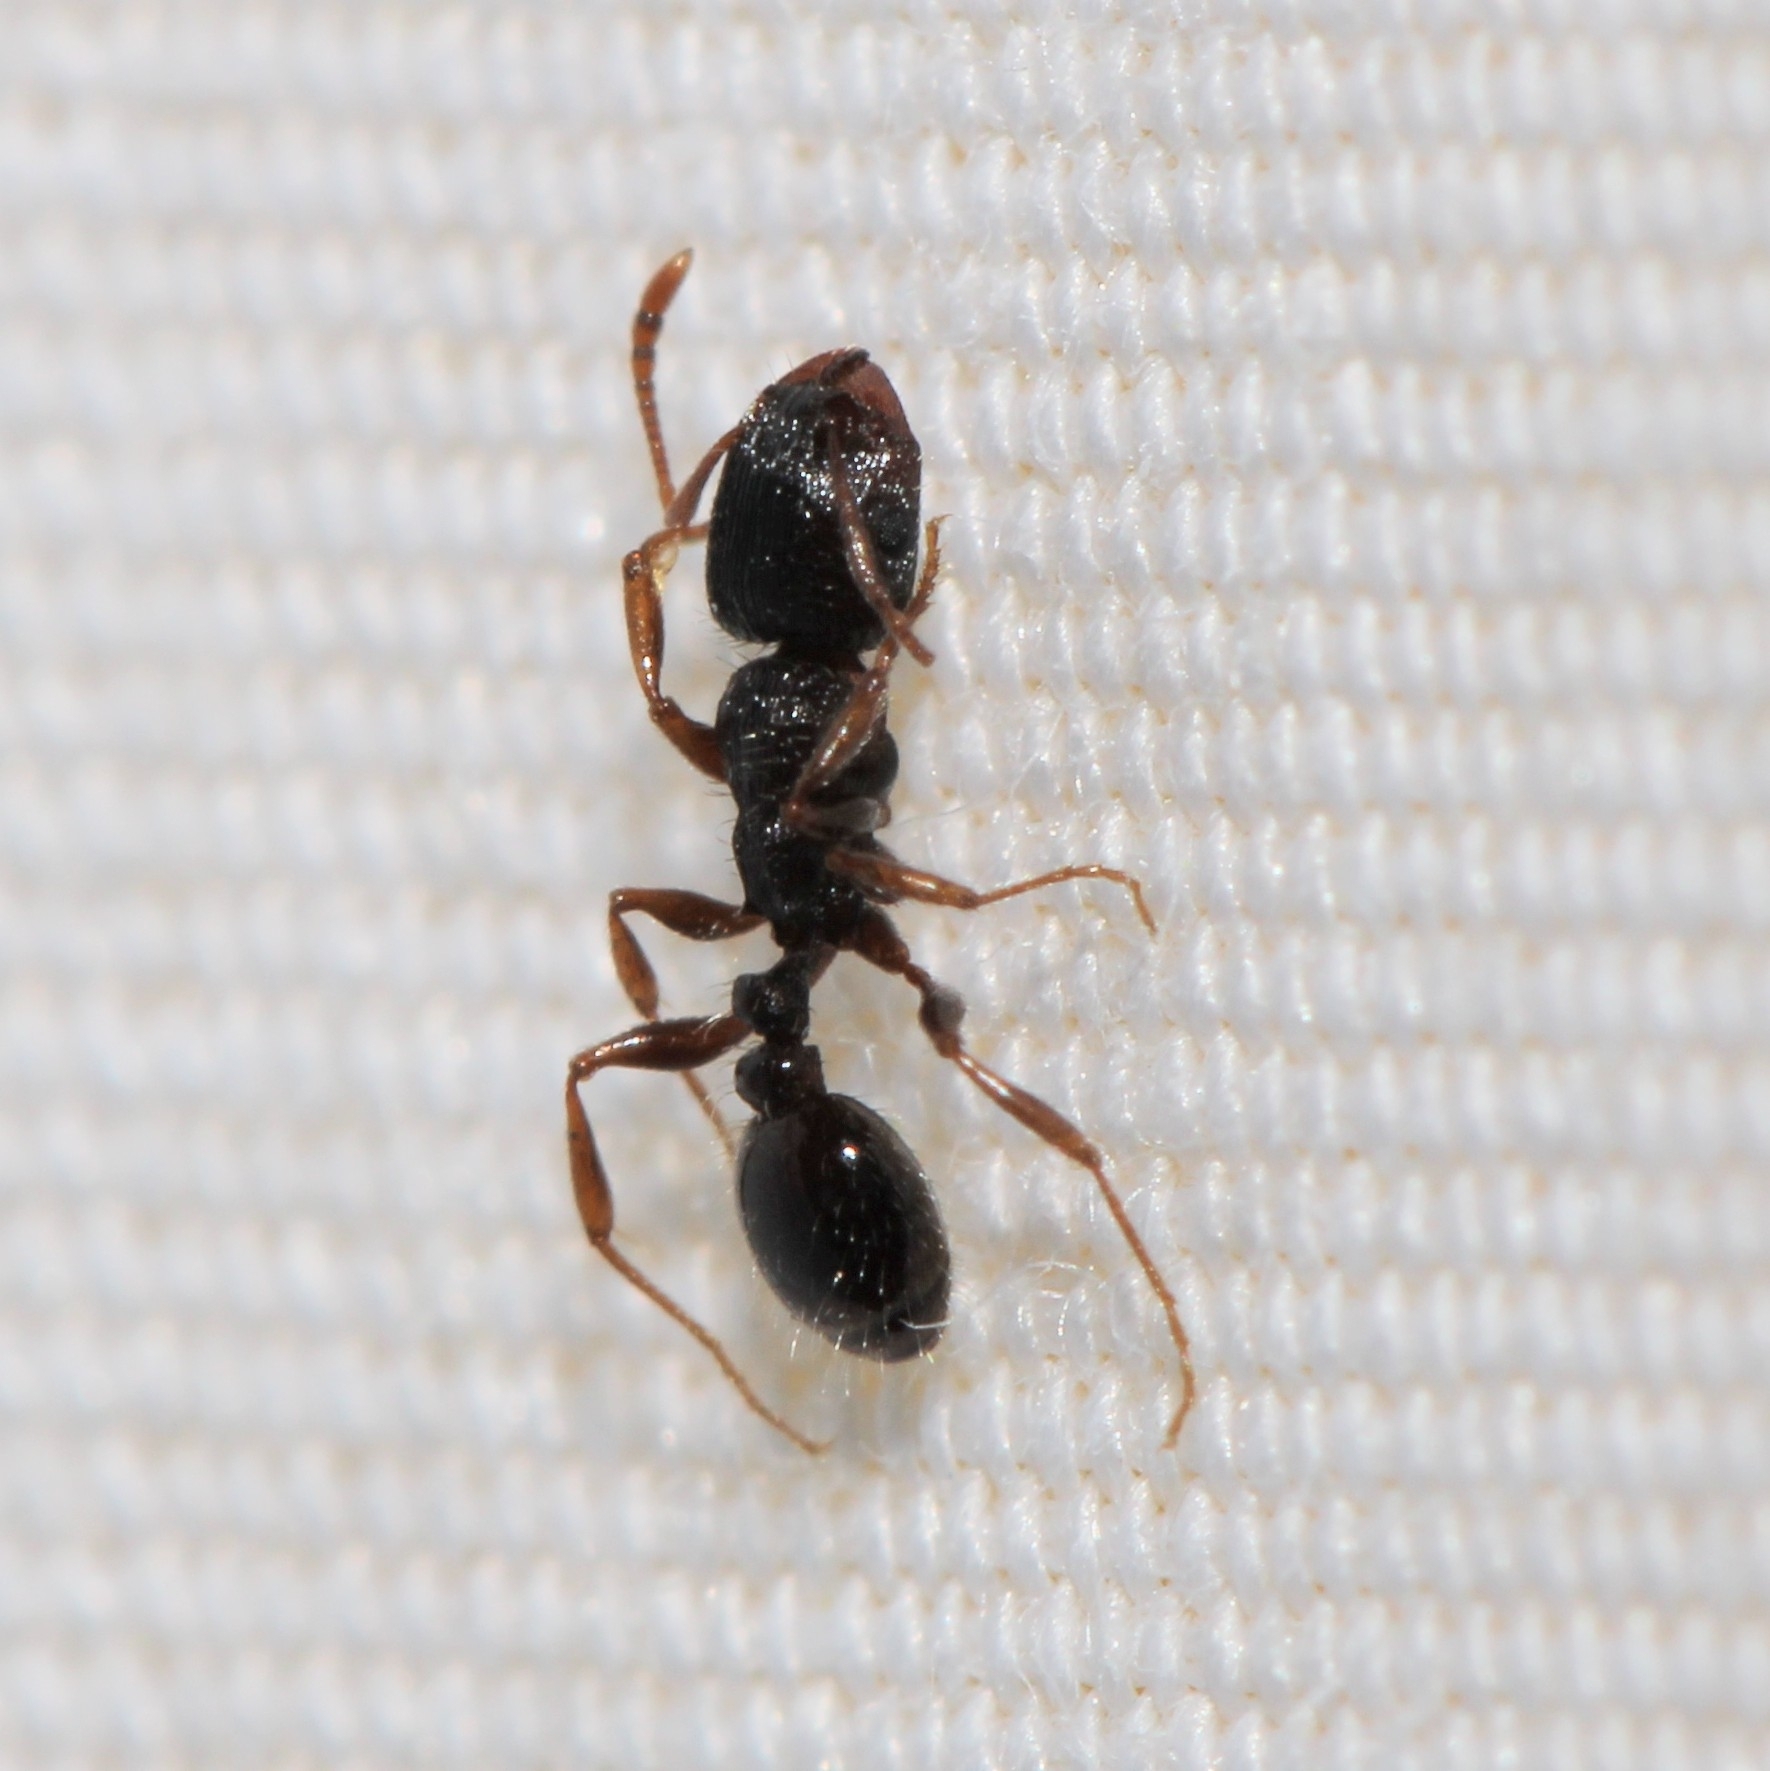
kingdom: Animalia
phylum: Arthropoda
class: Insecta
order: Hymenoptera
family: Formicidae
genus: Tetramorium
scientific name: Tetramorium immigrans
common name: Pavement ant
